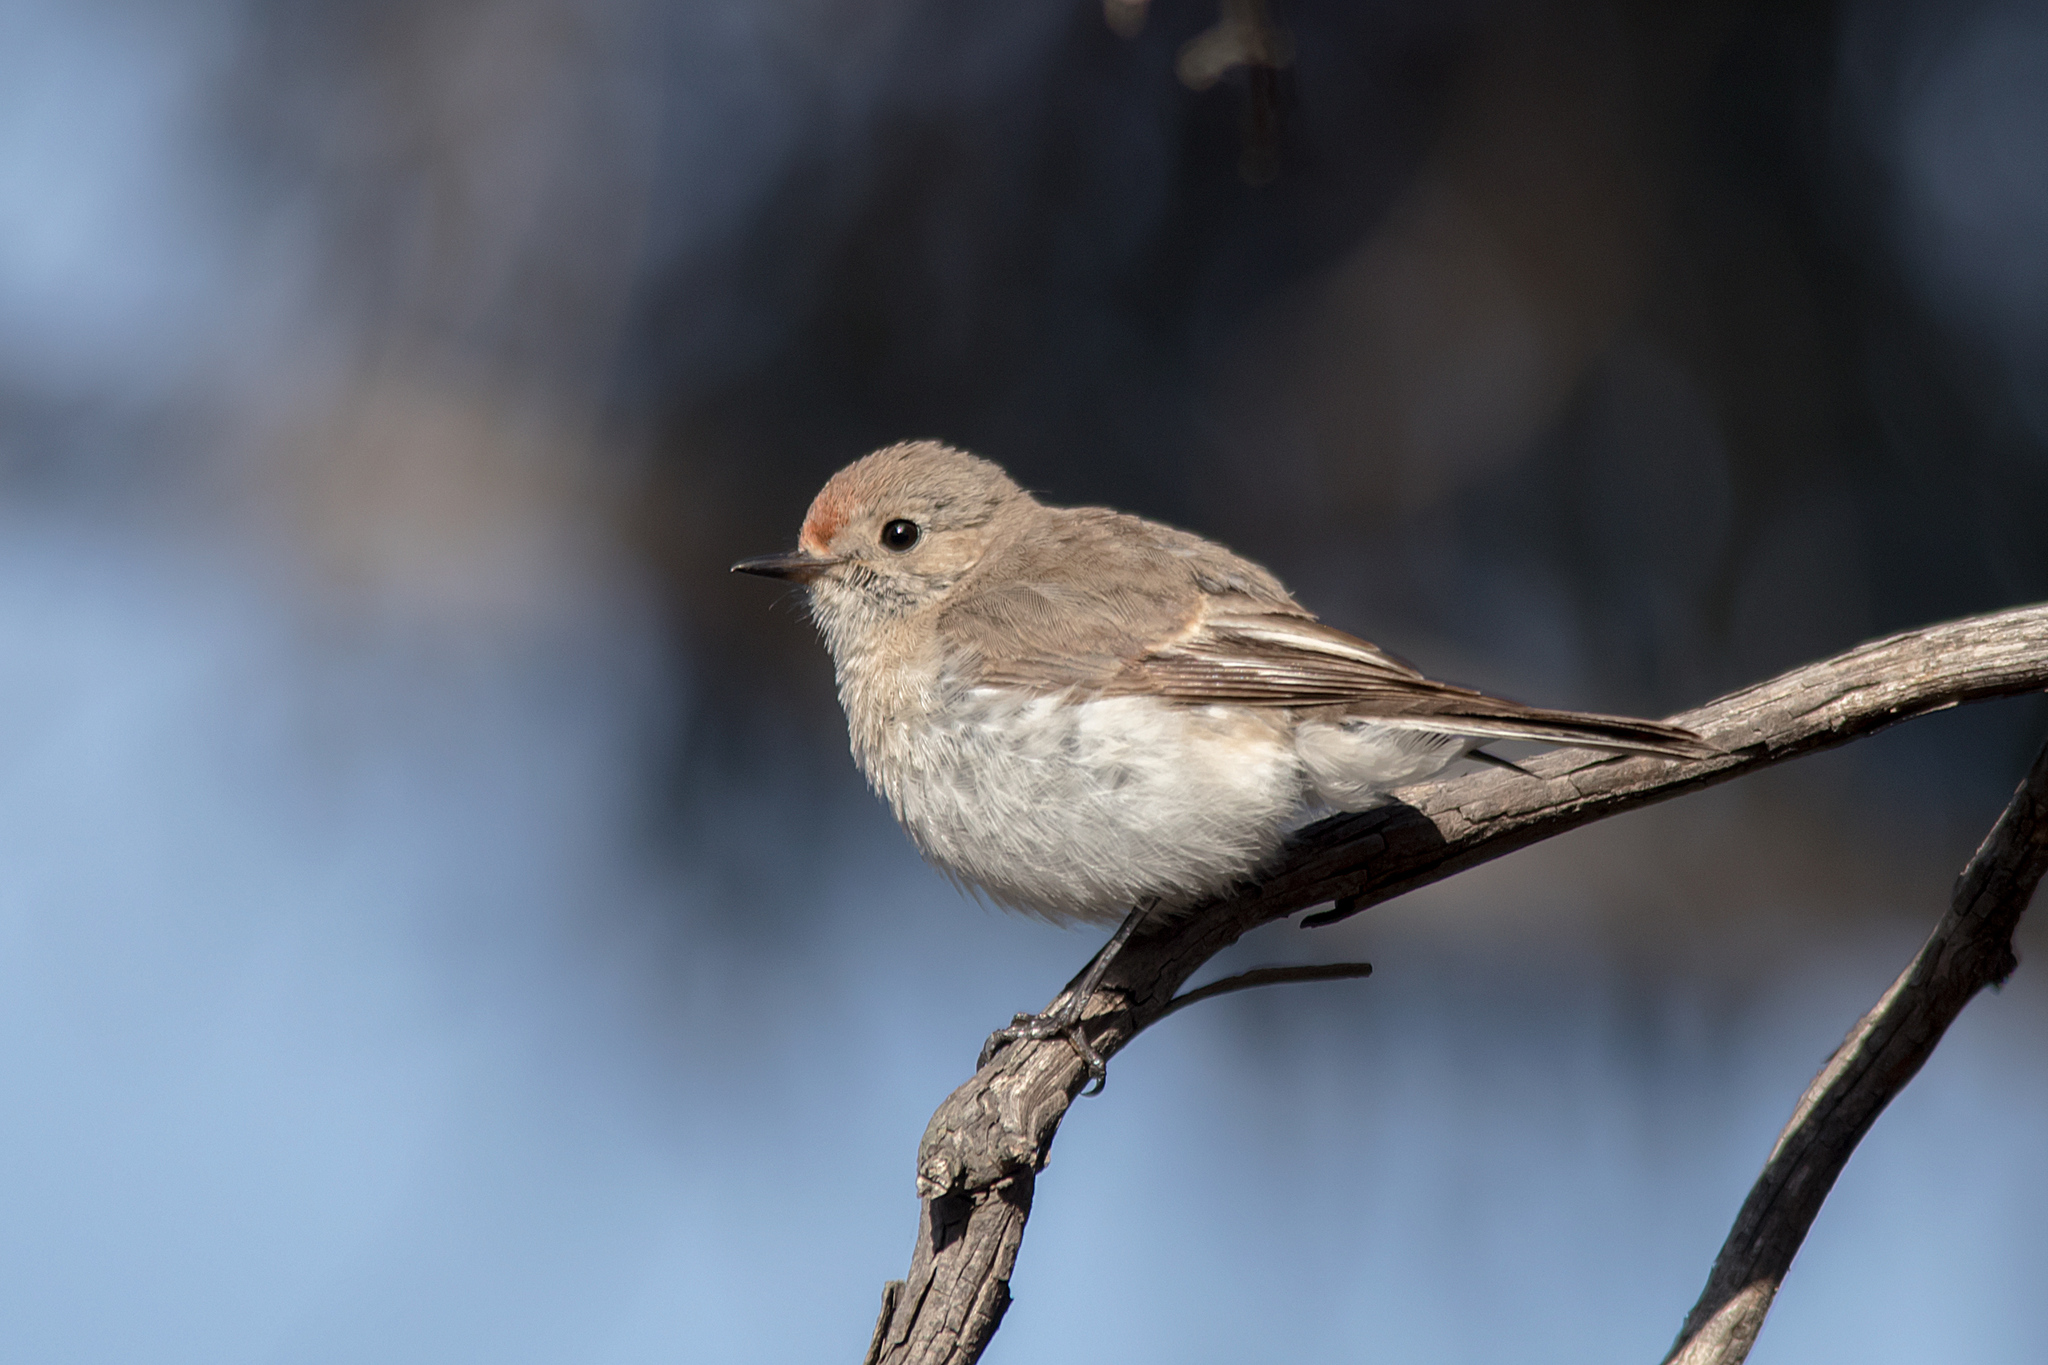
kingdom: Animalia
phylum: Chordata
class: Aves
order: Passeriformes
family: Petroicidae
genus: Petroica
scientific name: Petroica goodenovii
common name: Red-capped robin
